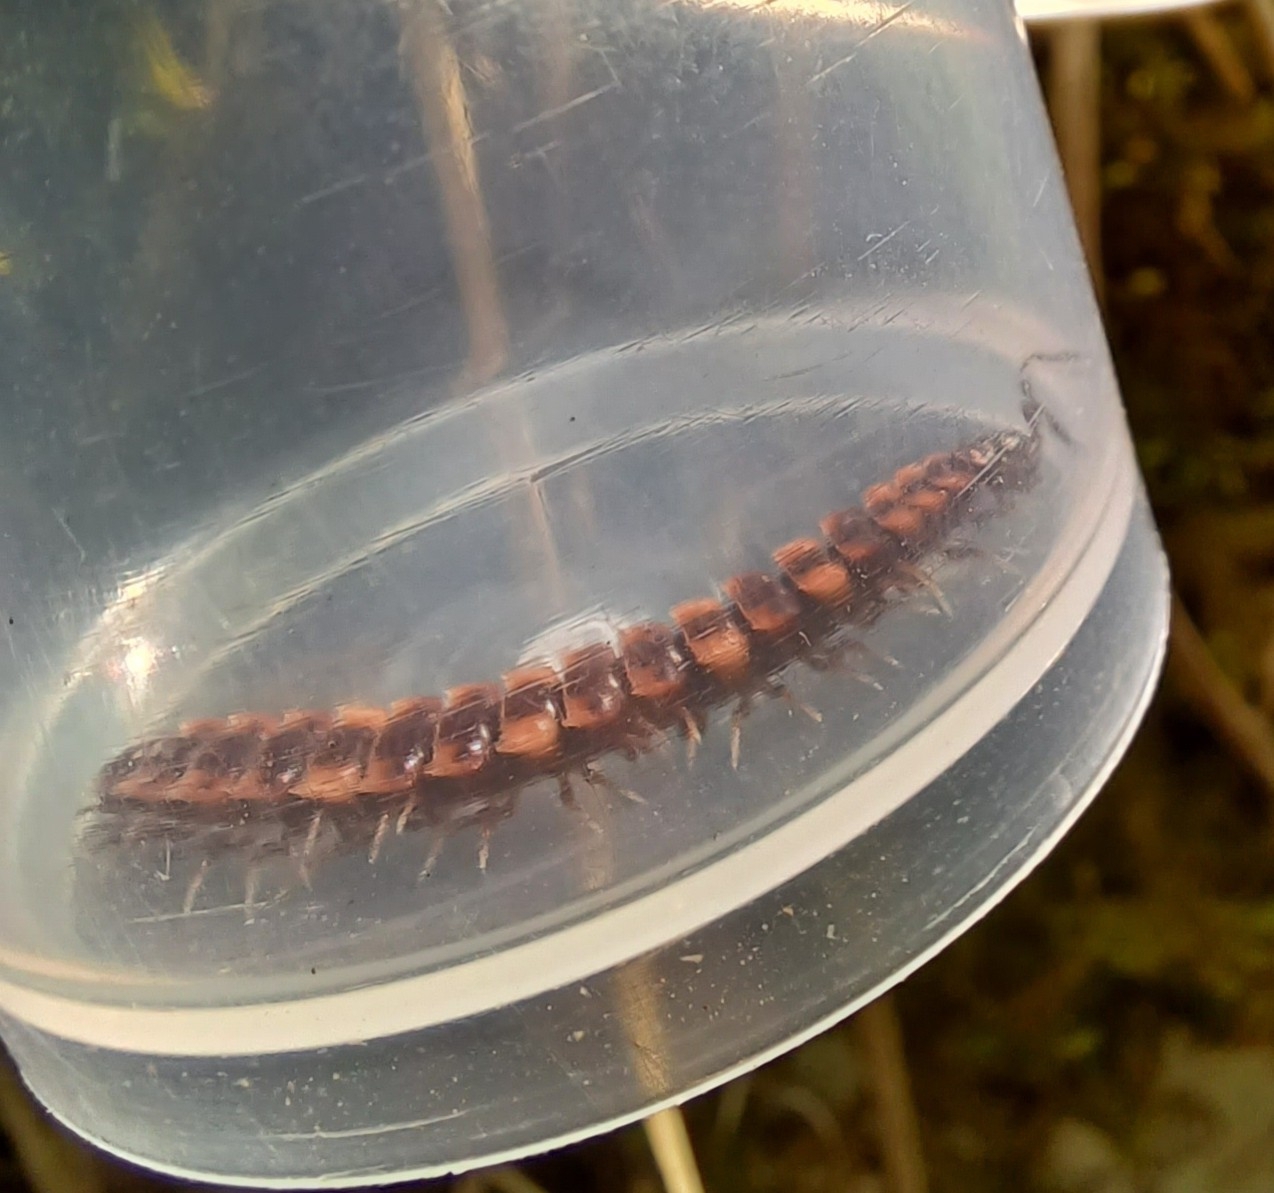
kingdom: Animalia
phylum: Arthropoda
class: Diplopoda
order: Polydesmida
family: Polydesmidae
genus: Polydesmus
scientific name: Polydesmus complanatus
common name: Flat-backed millipede
